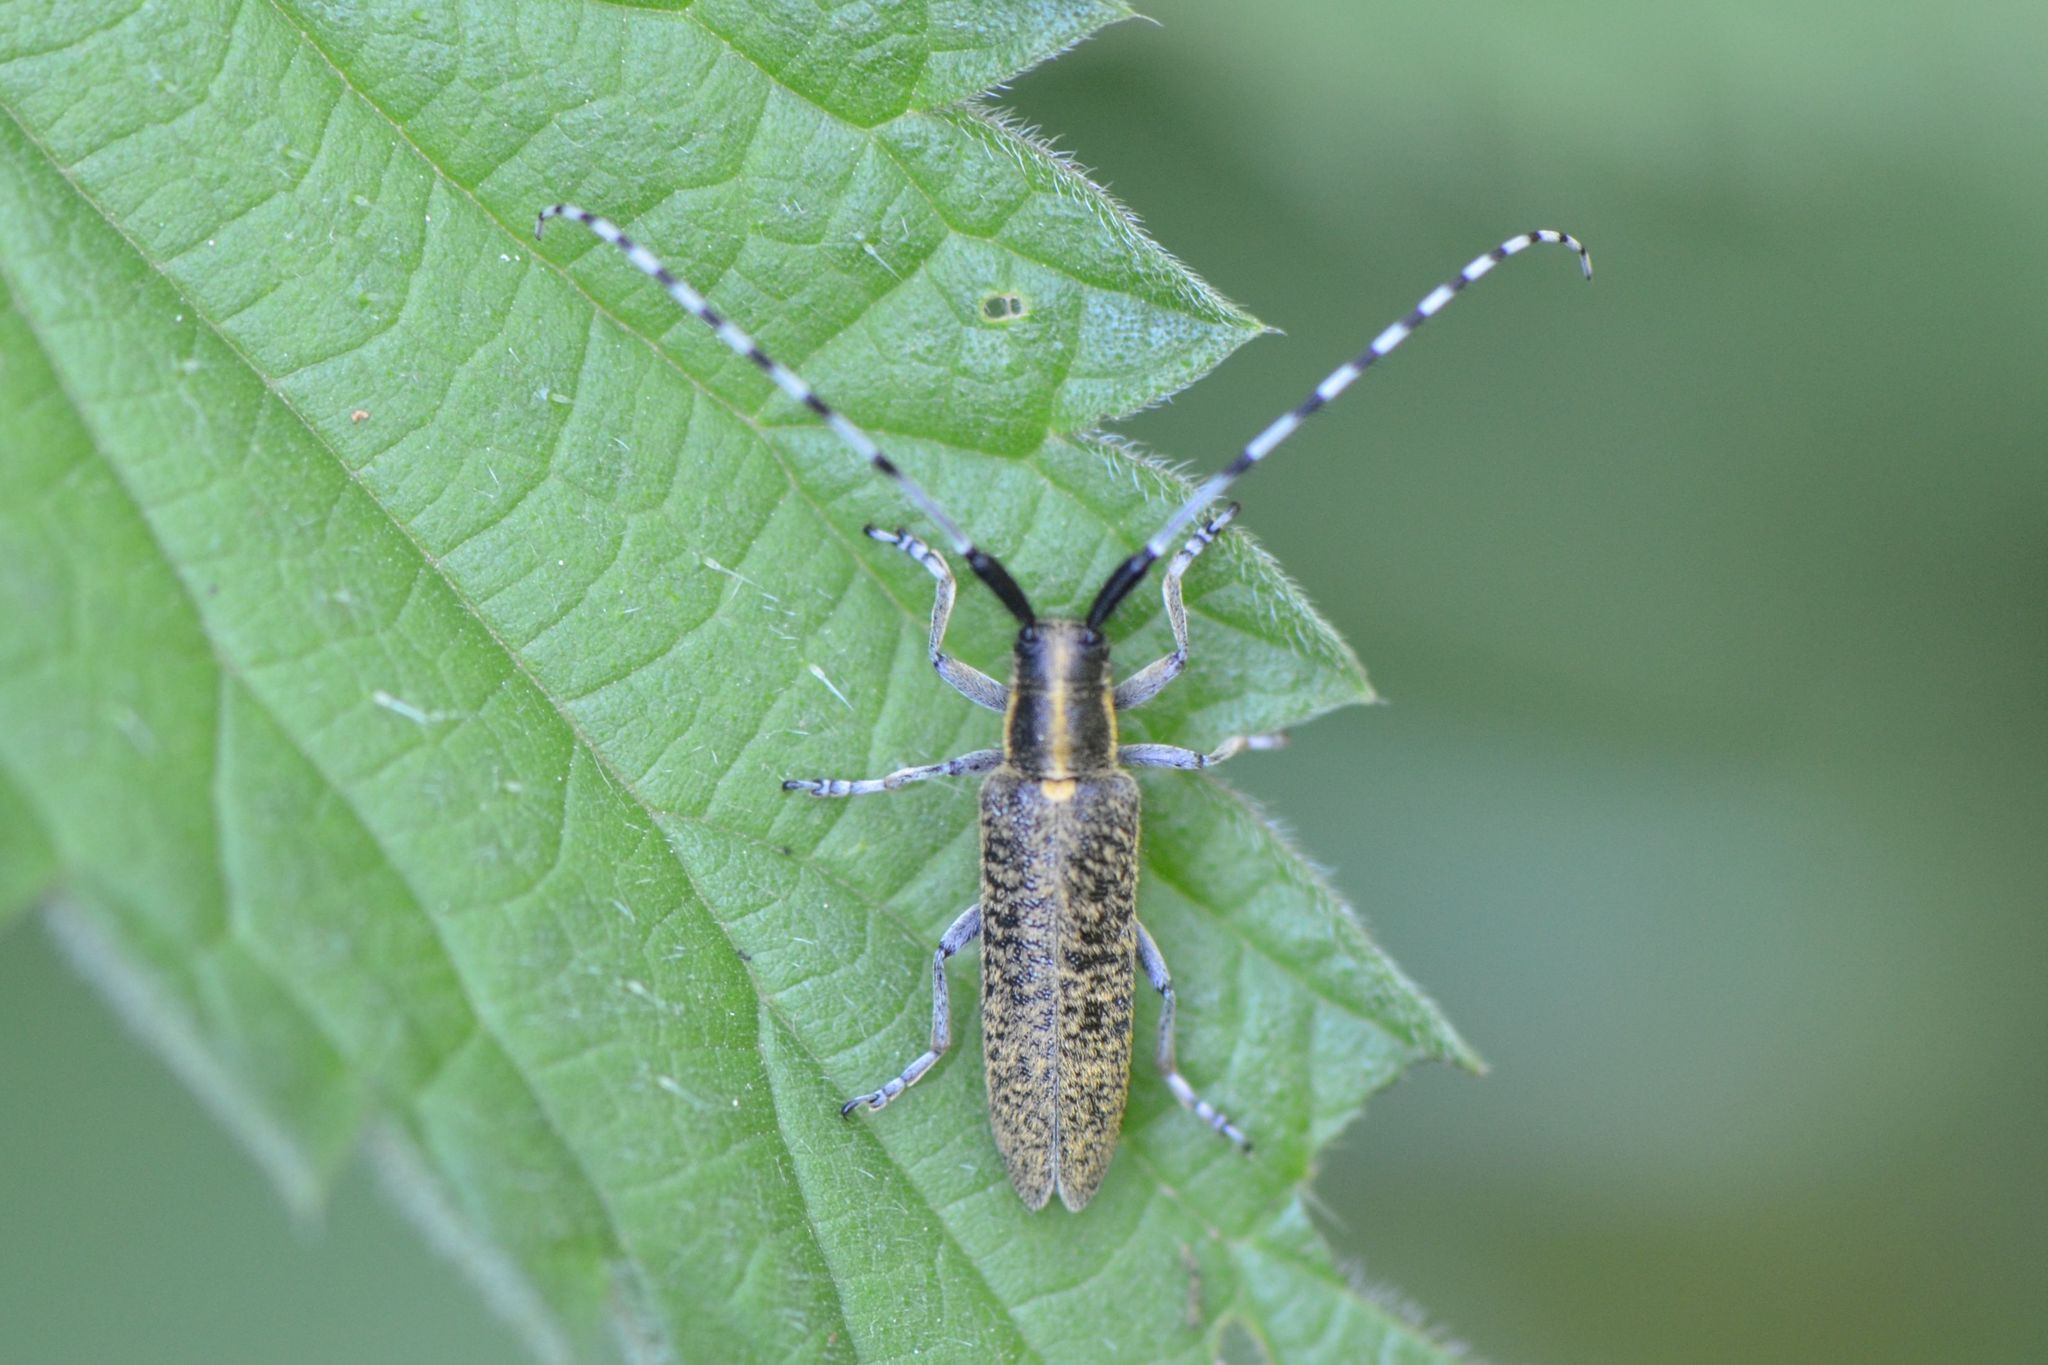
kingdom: Animalia
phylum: Arthropoda
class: Insecta
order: Coleoptera
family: Cerambycidae
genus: Agapanthia
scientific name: Agapanthia villosoviridescens
